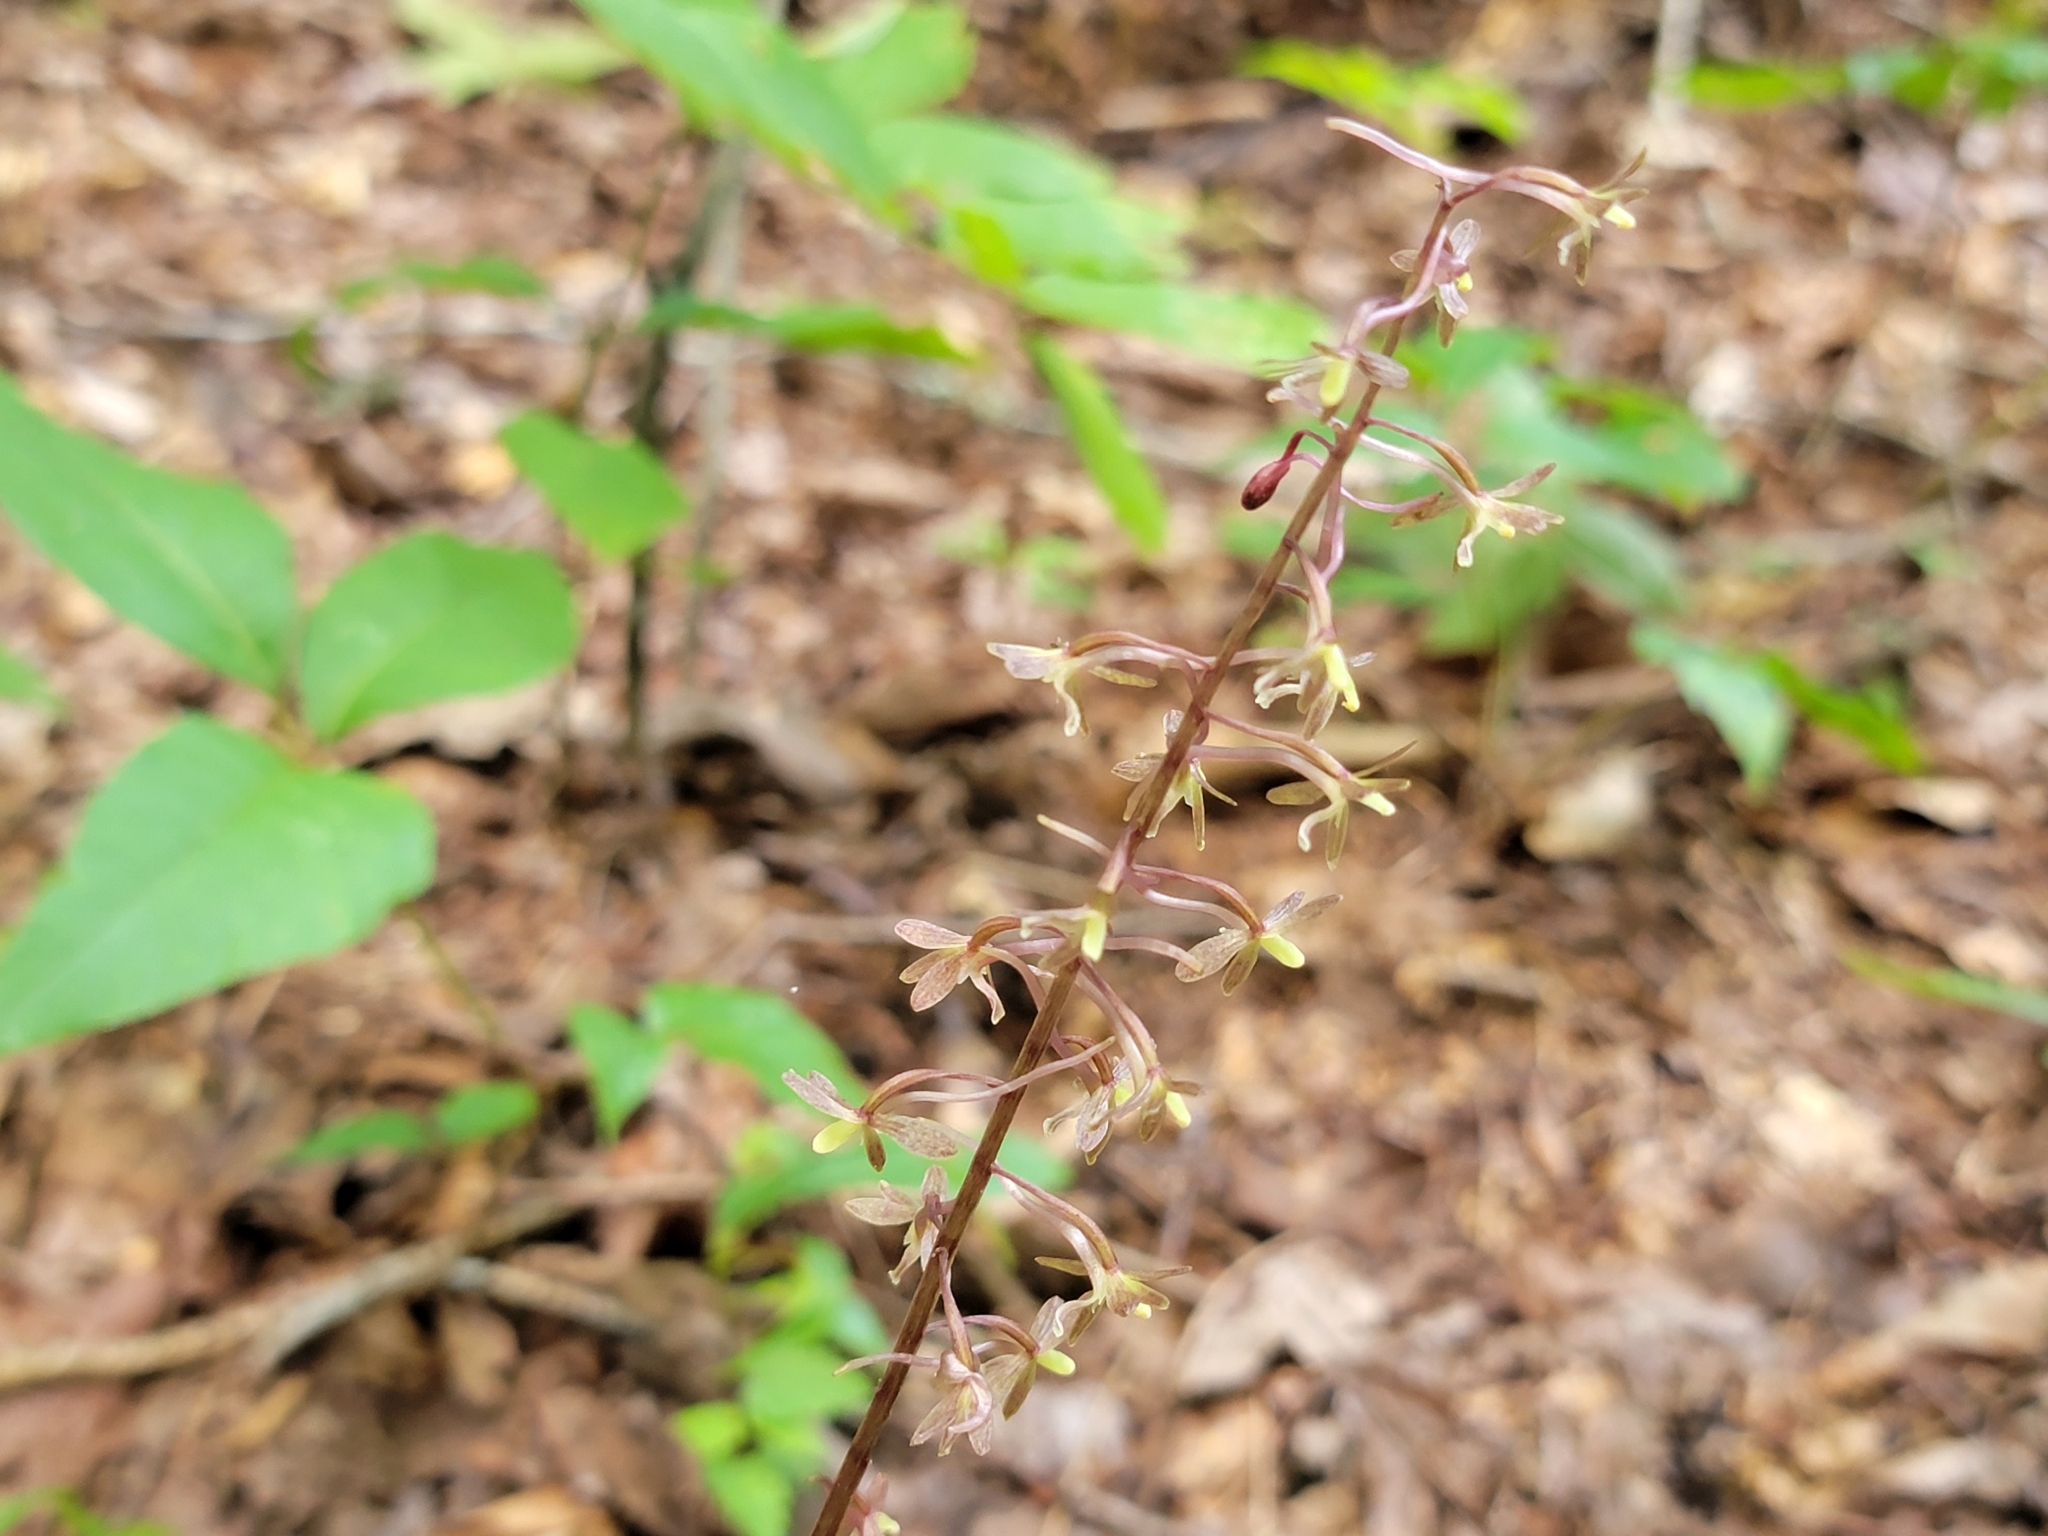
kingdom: Plantae
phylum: Tracheophyta
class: Liliopsida
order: Asparagales
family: Orchidaceae
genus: Tipularia
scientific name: Tipularia discolor
